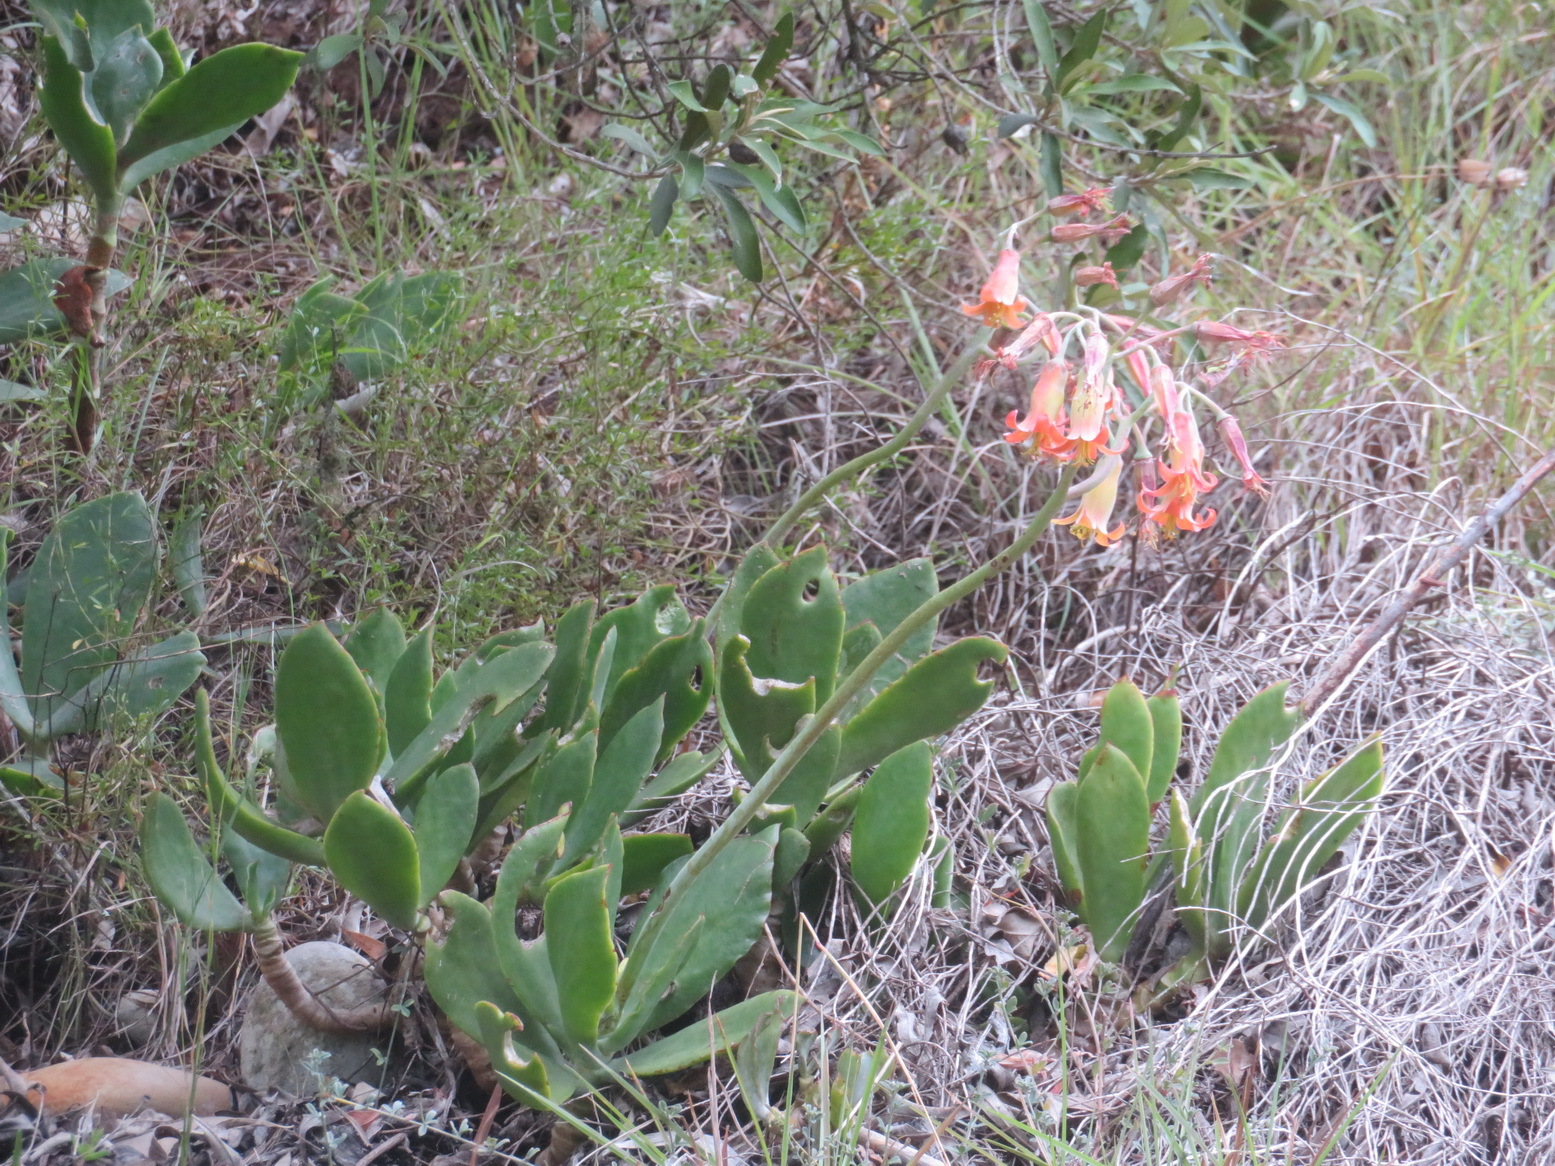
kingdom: Plantae
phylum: Tracheophyta
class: Magnoliopsida
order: Saxifragales
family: Crassulaceae
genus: Cotyledon
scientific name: Cotyledon orbiculata
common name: Pig's ear
